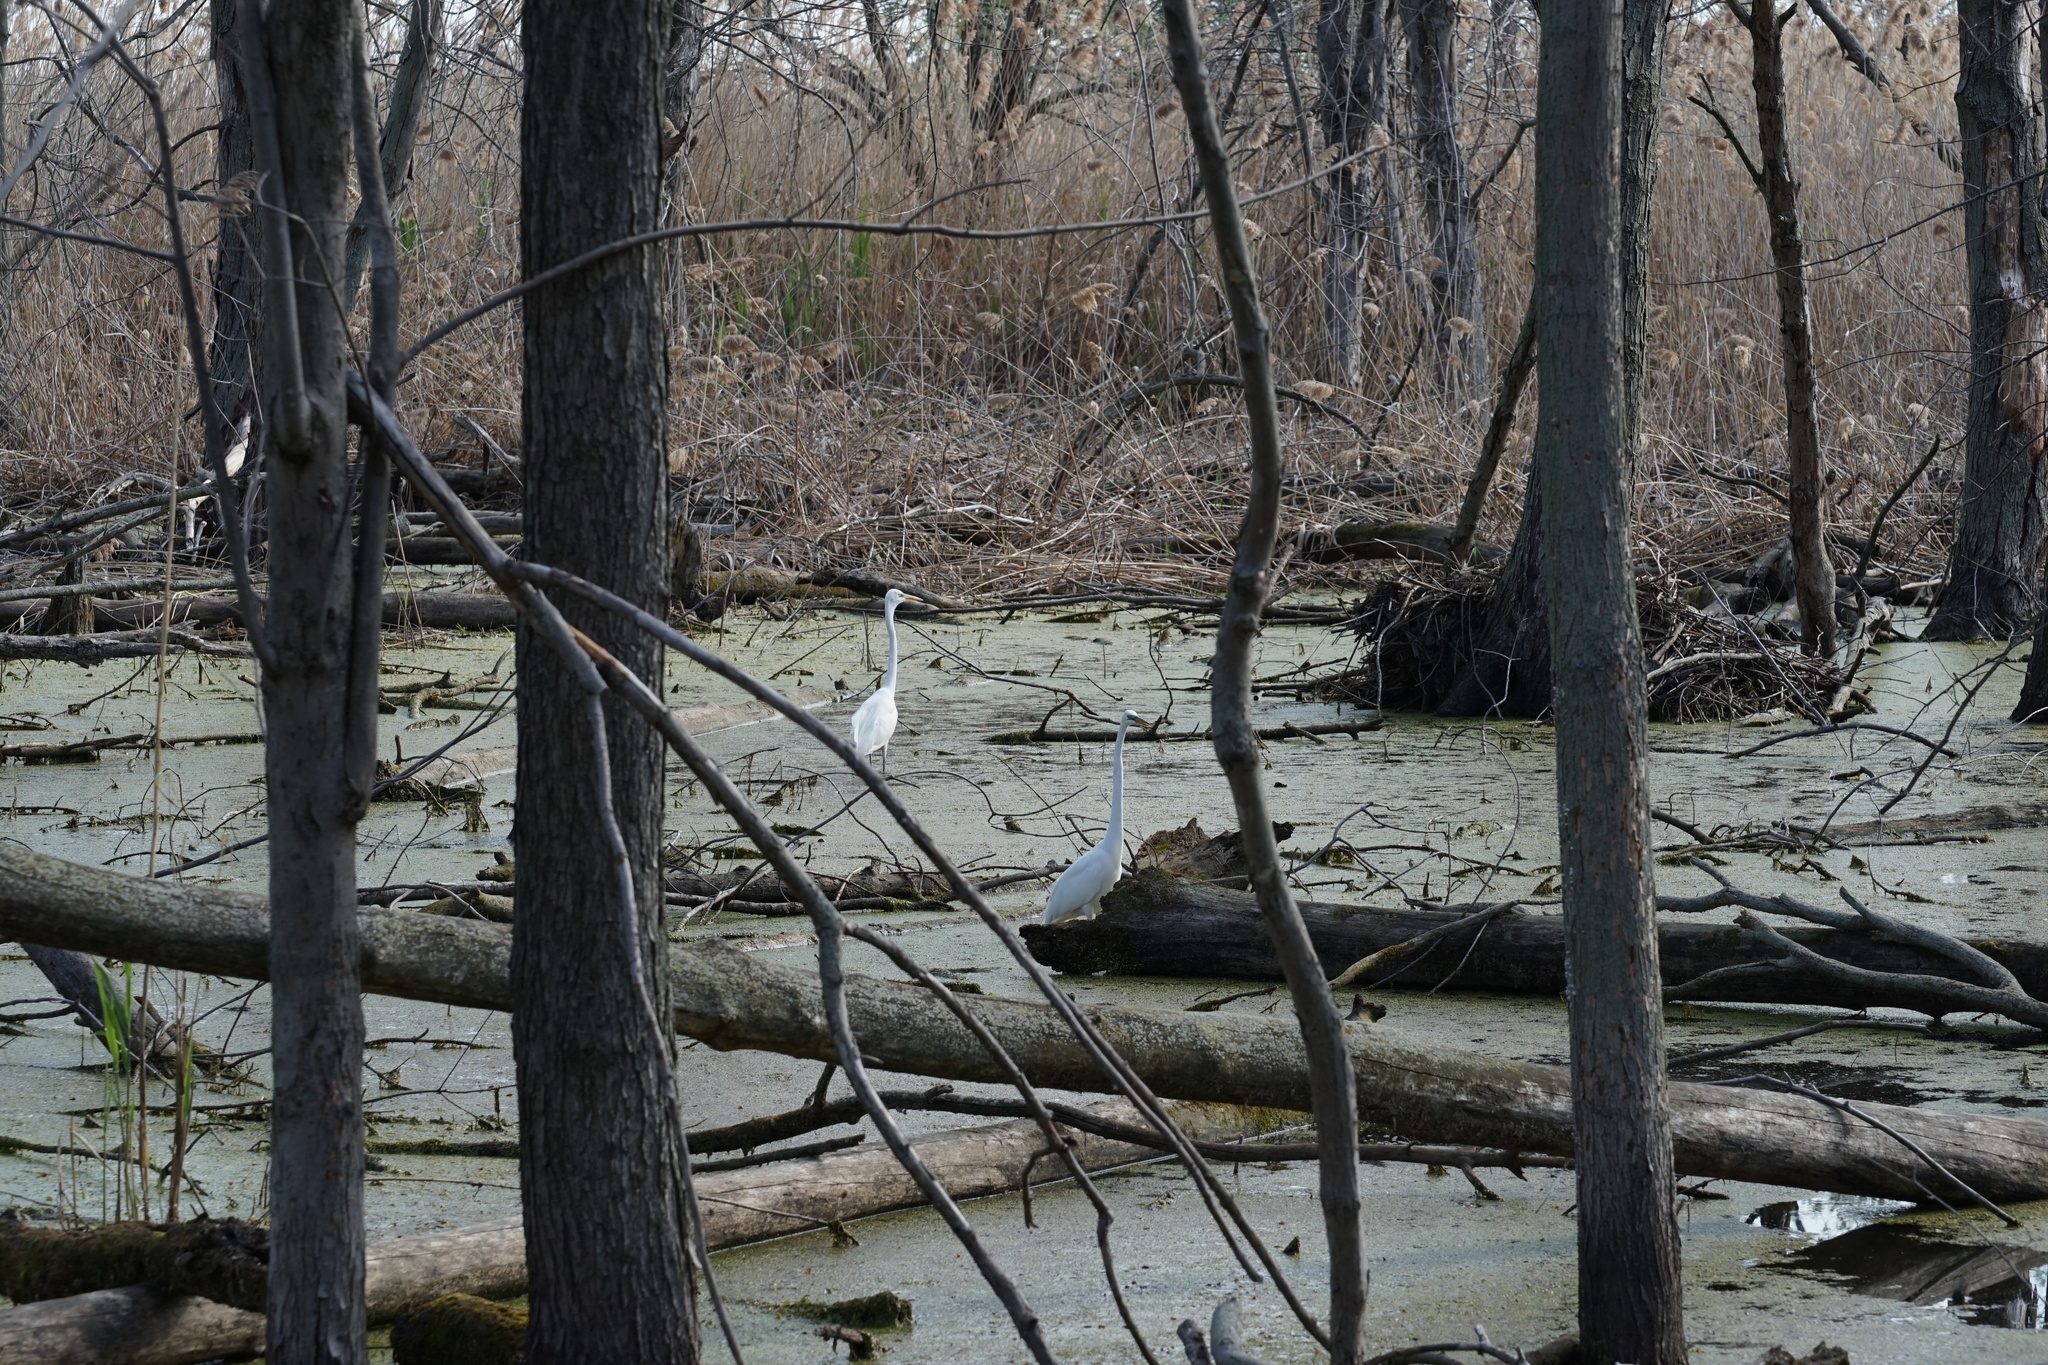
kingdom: Animalia
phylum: Chordata
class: Aves
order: Pelecaniformes
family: Ardeidae
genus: Ardea
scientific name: Ardea alba
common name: Great egret
